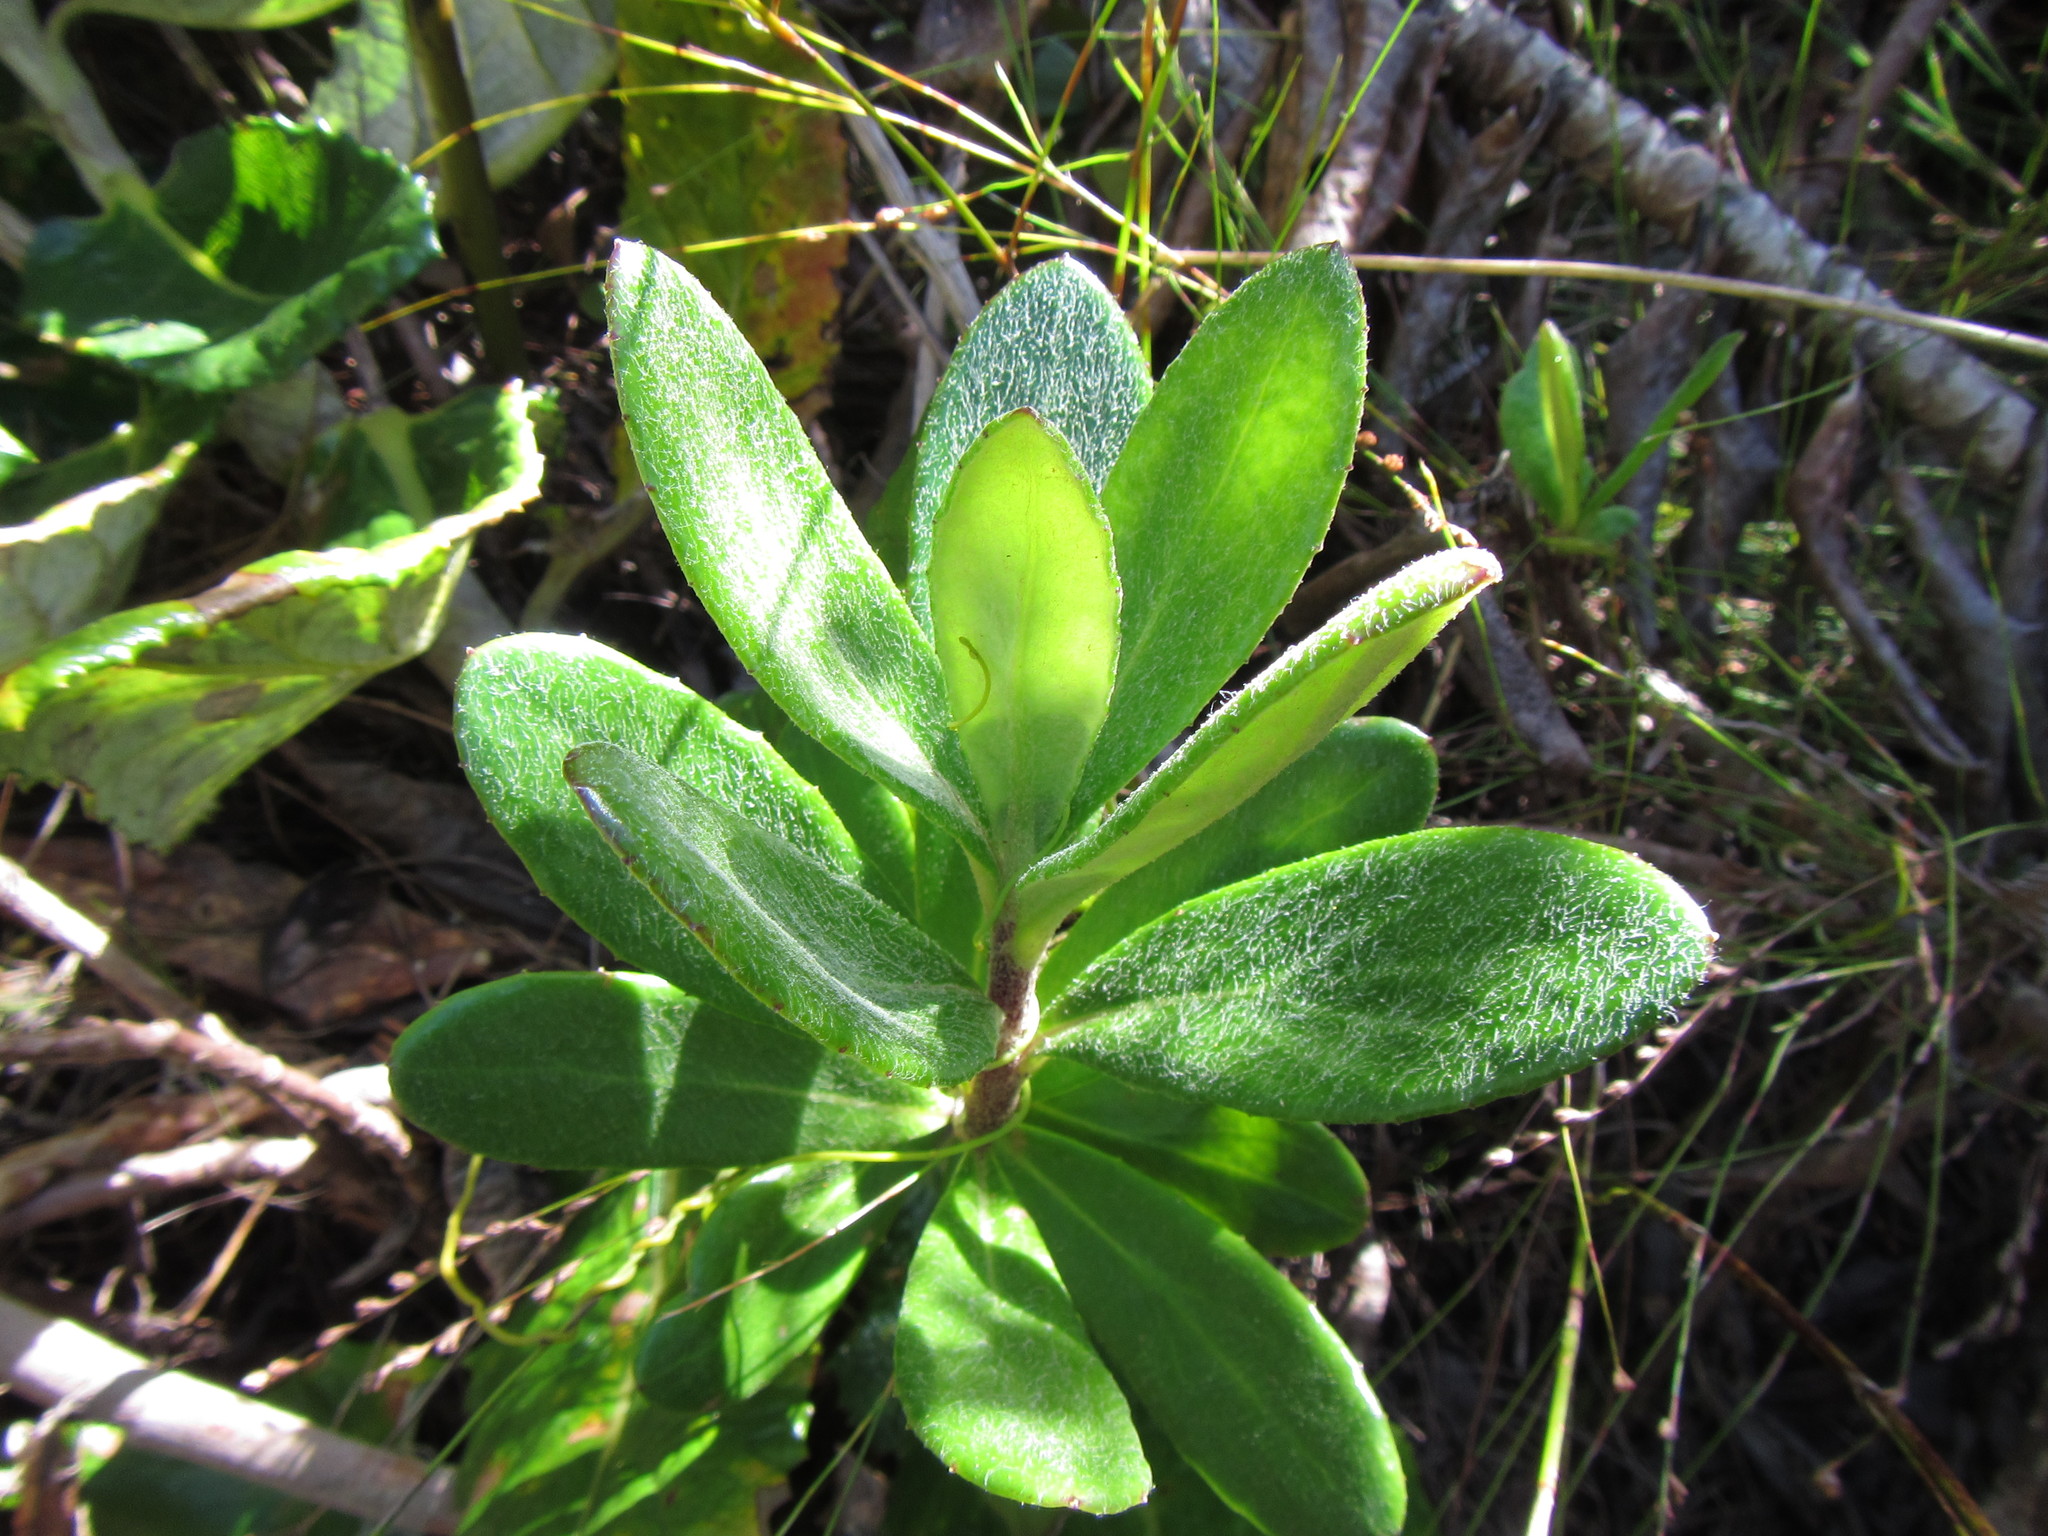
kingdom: Plantae
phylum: Tracheophyta
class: Magnoliopsida
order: Asterales
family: Asteraceae
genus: Capelio
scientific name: Capelio caledonica
